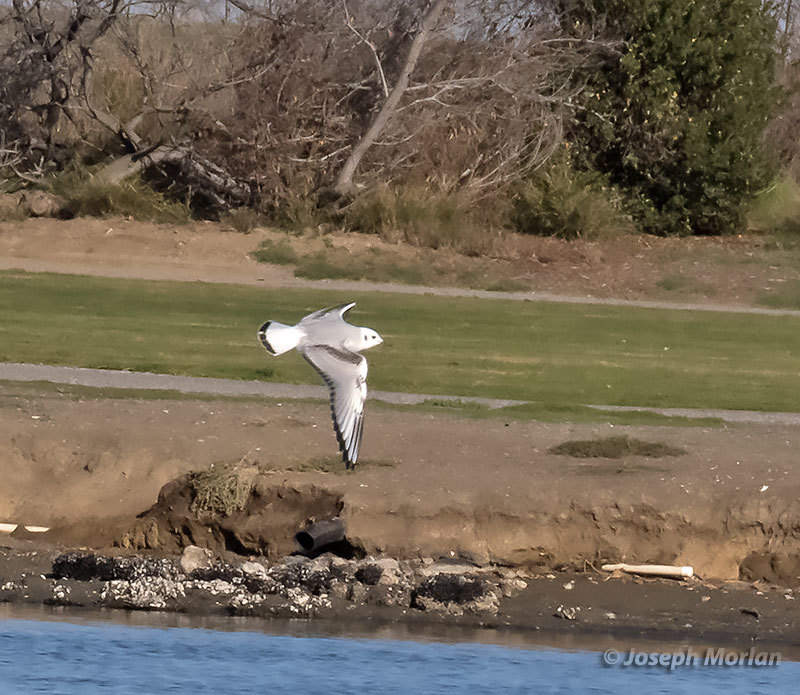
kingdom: Animalia
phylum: Chordata
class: Aves
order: Charadriiformes
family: Laridae
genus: Chroicocephalus
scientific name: Chroicocephalus philadelphia
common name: Bonaparte's gull
